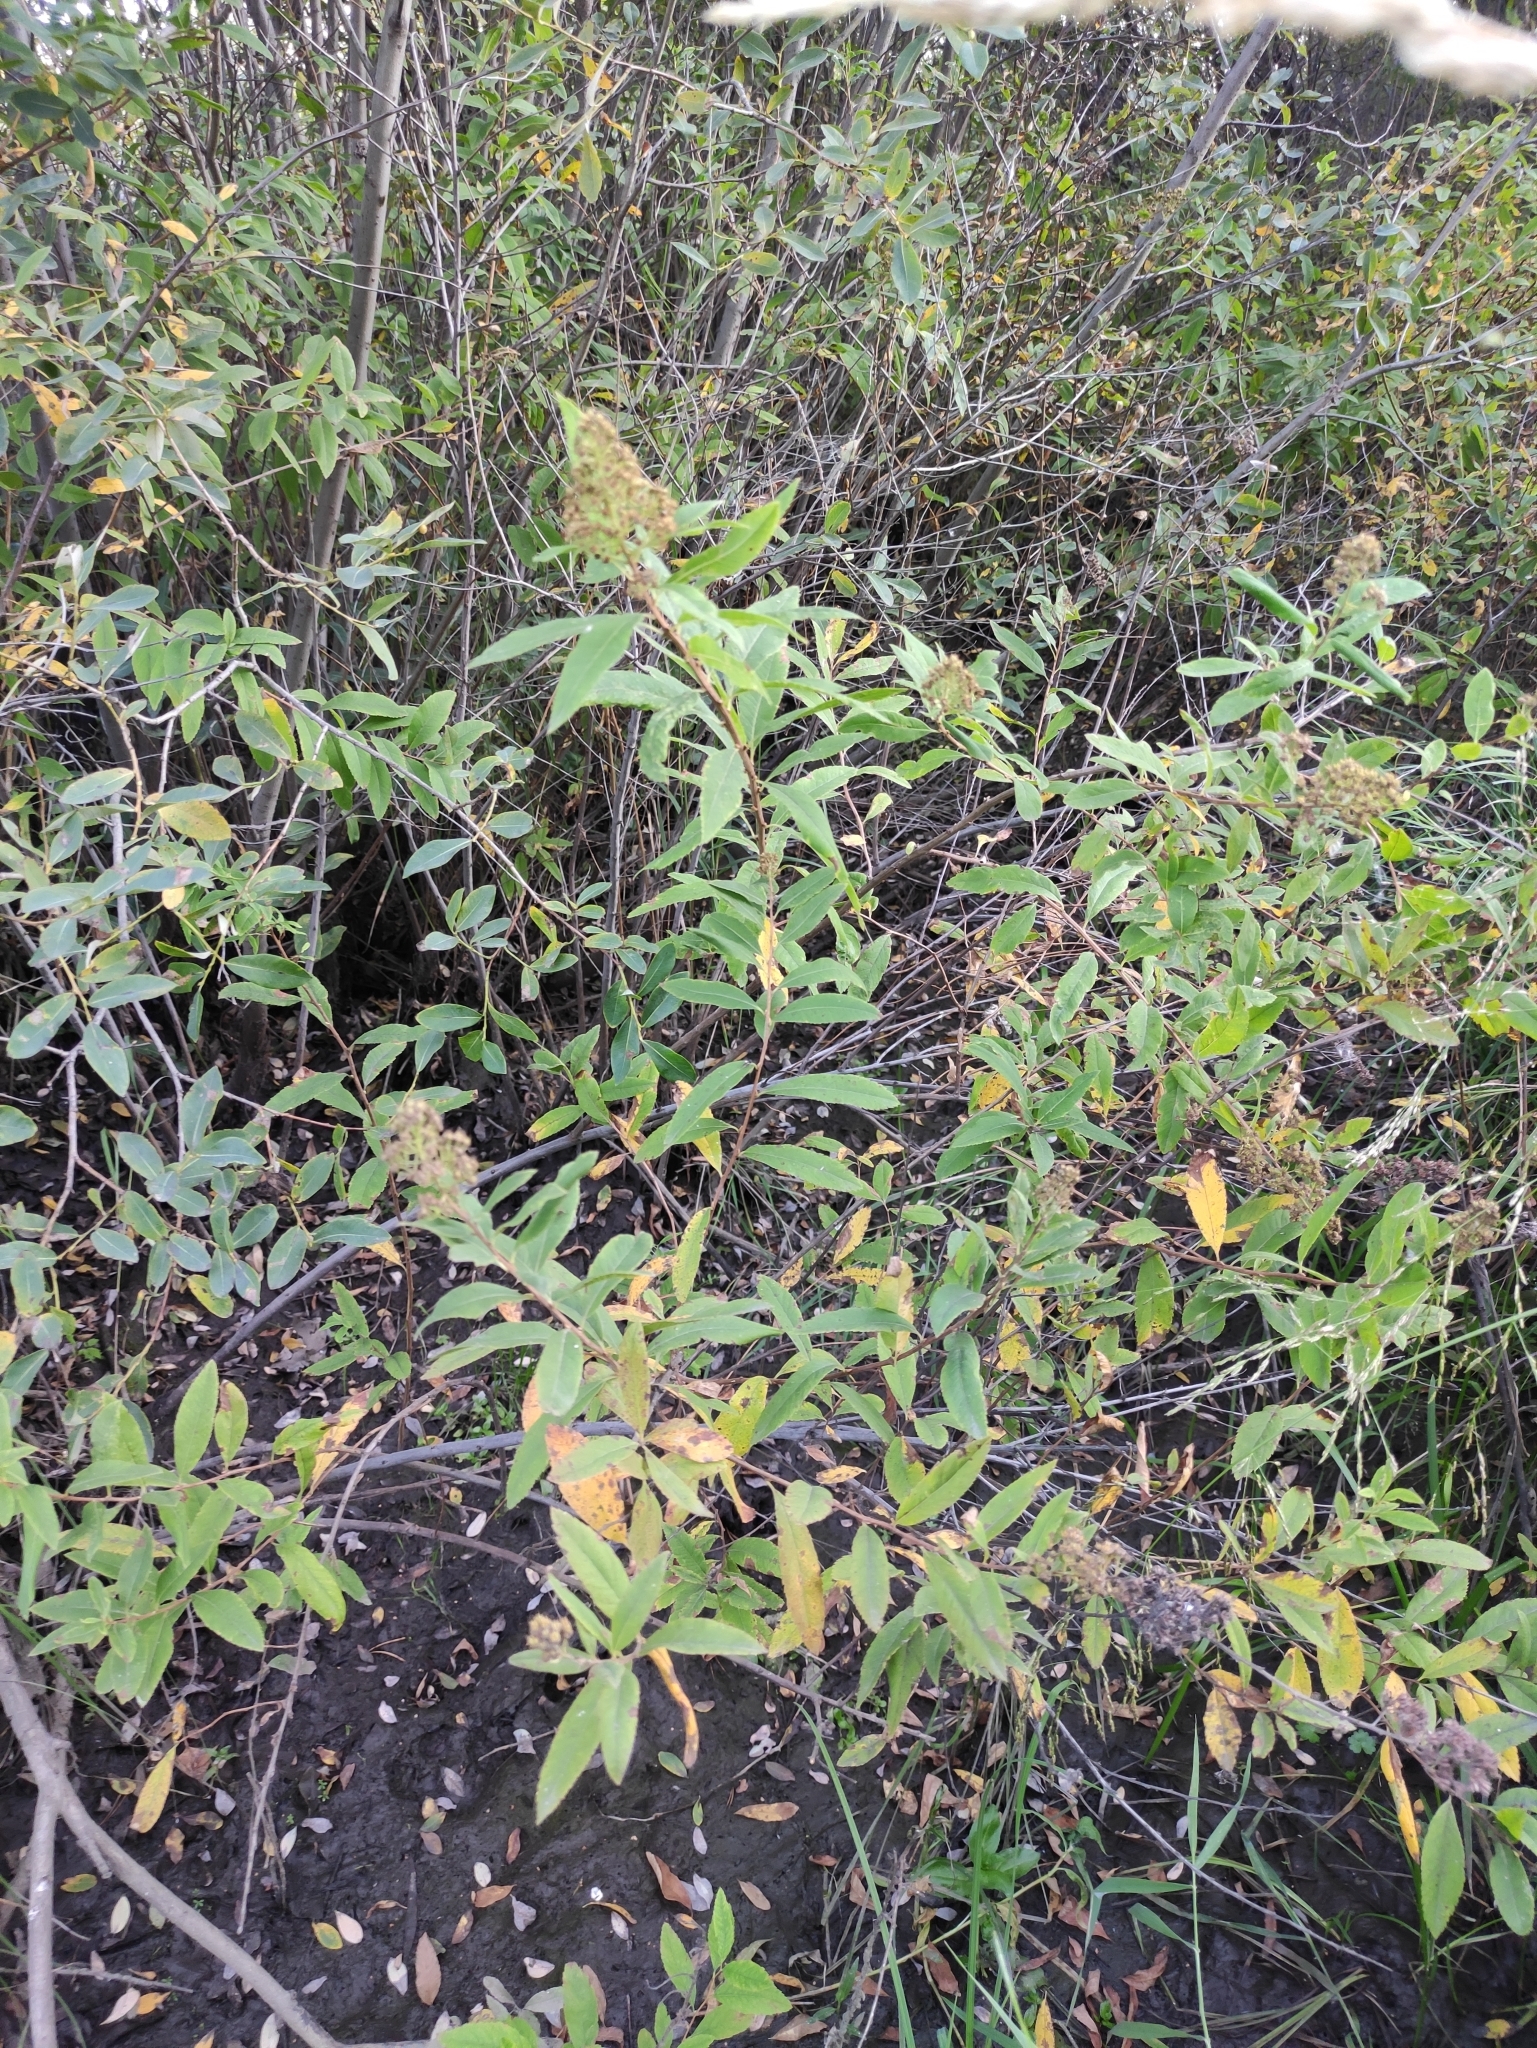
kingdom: Plantae
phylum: Tracheophyta
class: Magnoliopsida
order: Rosales
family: Rosaceae
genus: Spiraea
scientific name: Spiraea salicifolia
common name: Bridewort
